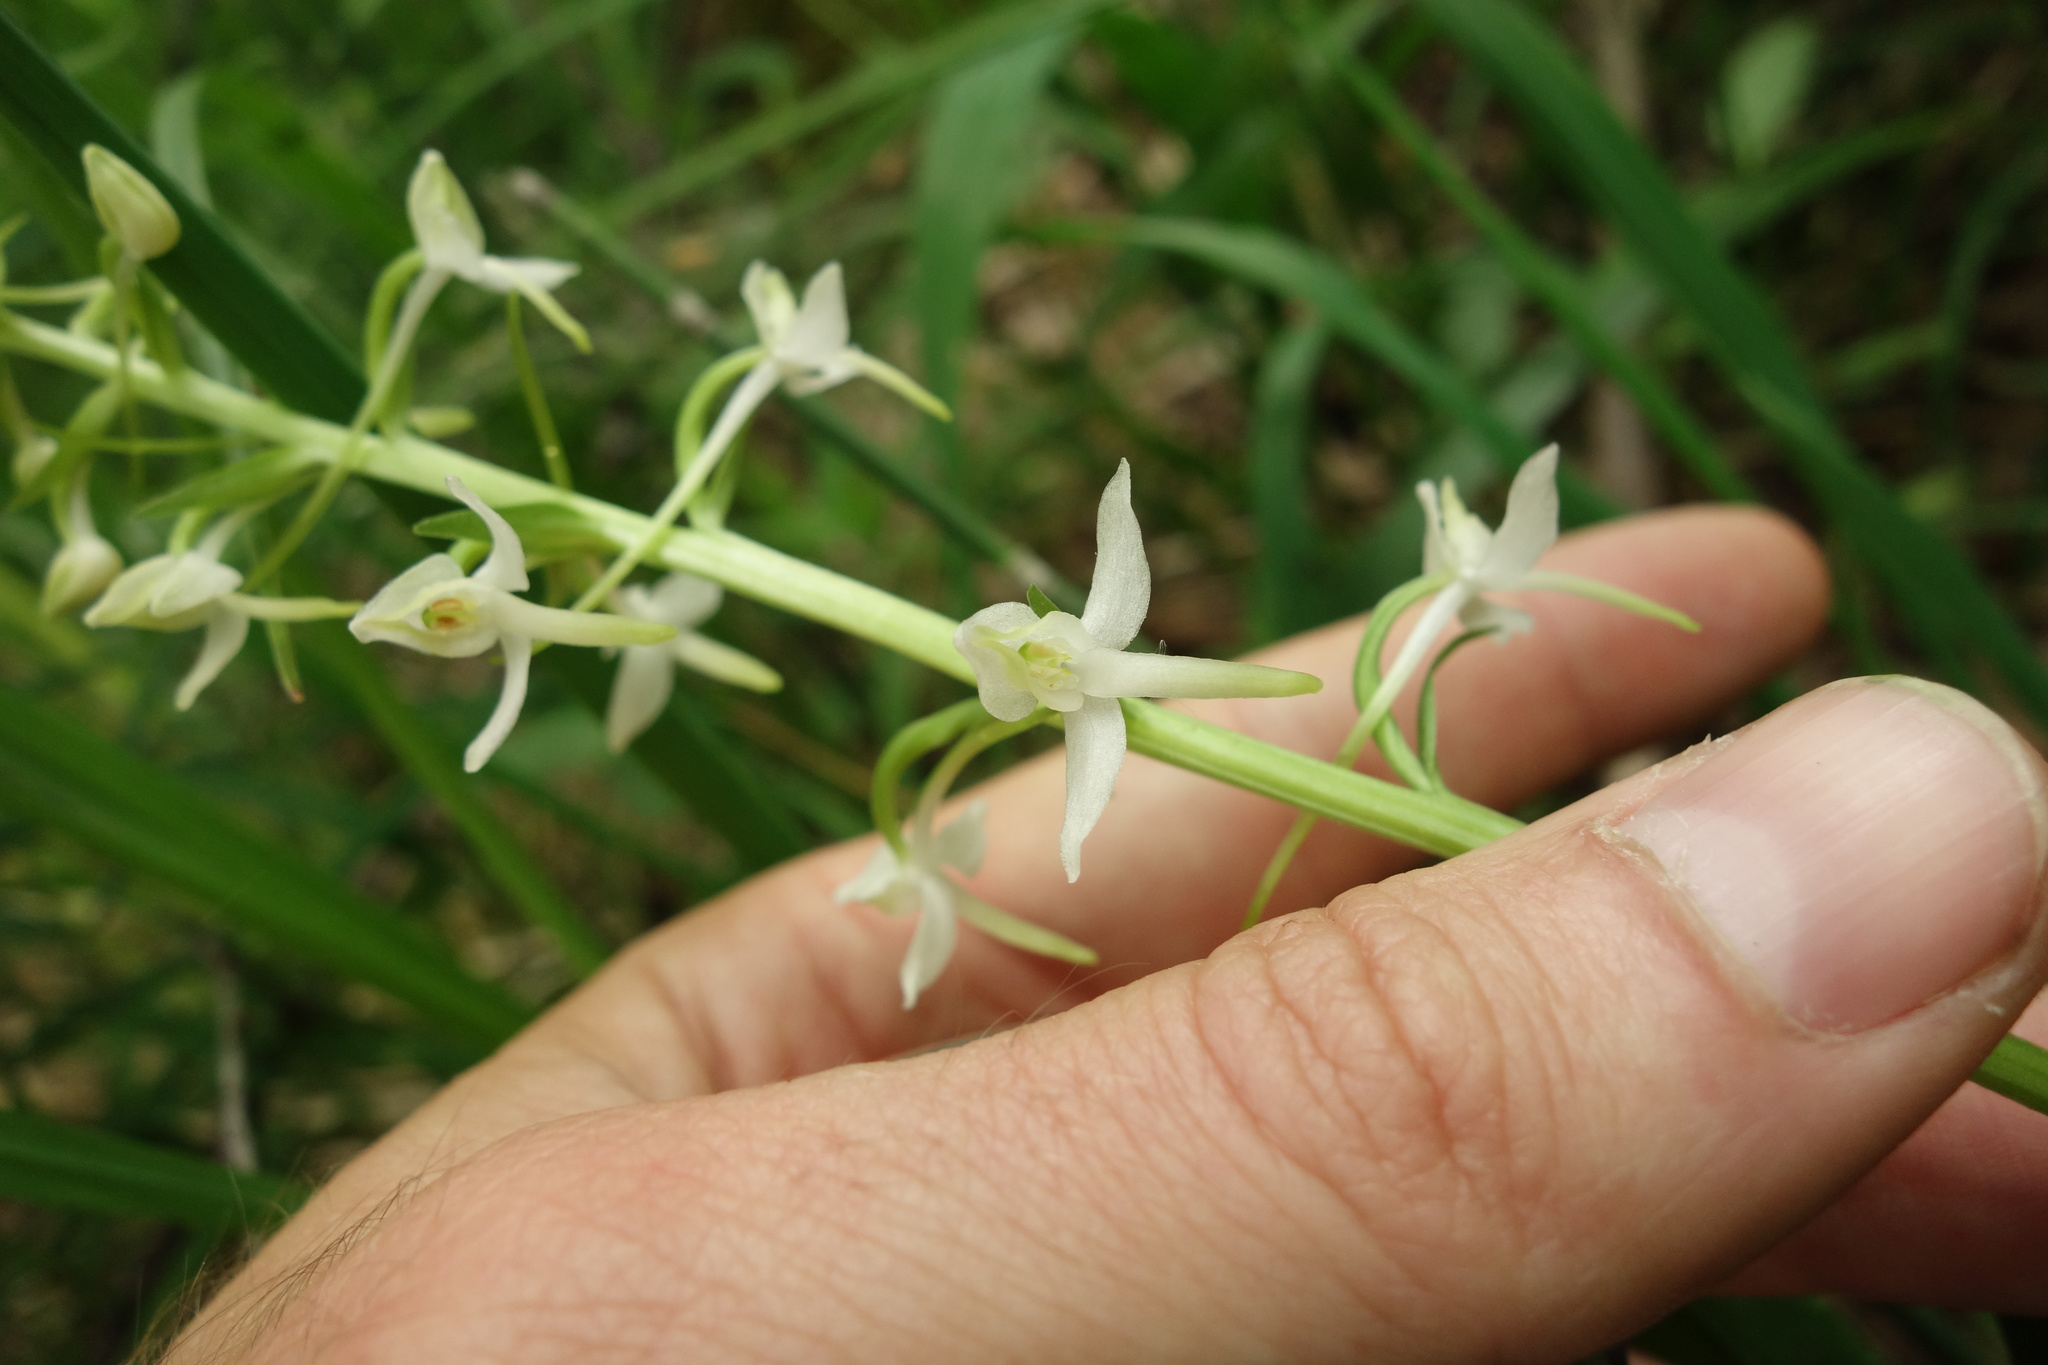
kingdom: Plantae
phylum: Tracheophyta
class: Liliopsida
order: Asparagales
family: Orchidaceae
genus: Platanthera
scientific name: Platanthera bifolia
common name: Lesser butterfly-orchid
